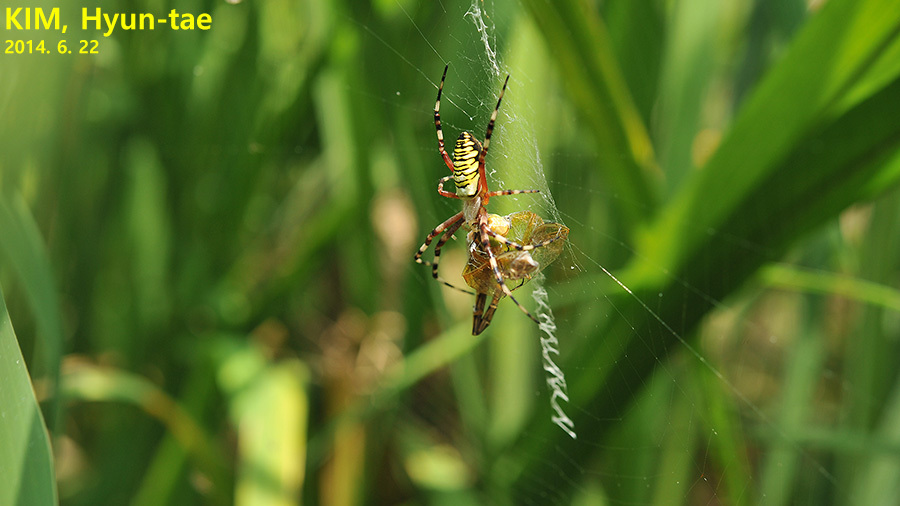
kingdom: Animalia
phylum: Arthropoda
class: Arachnida
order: Araneae
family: Araneidae
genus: Argiope
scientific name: Argiope bruennichi
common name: Wasp spider
